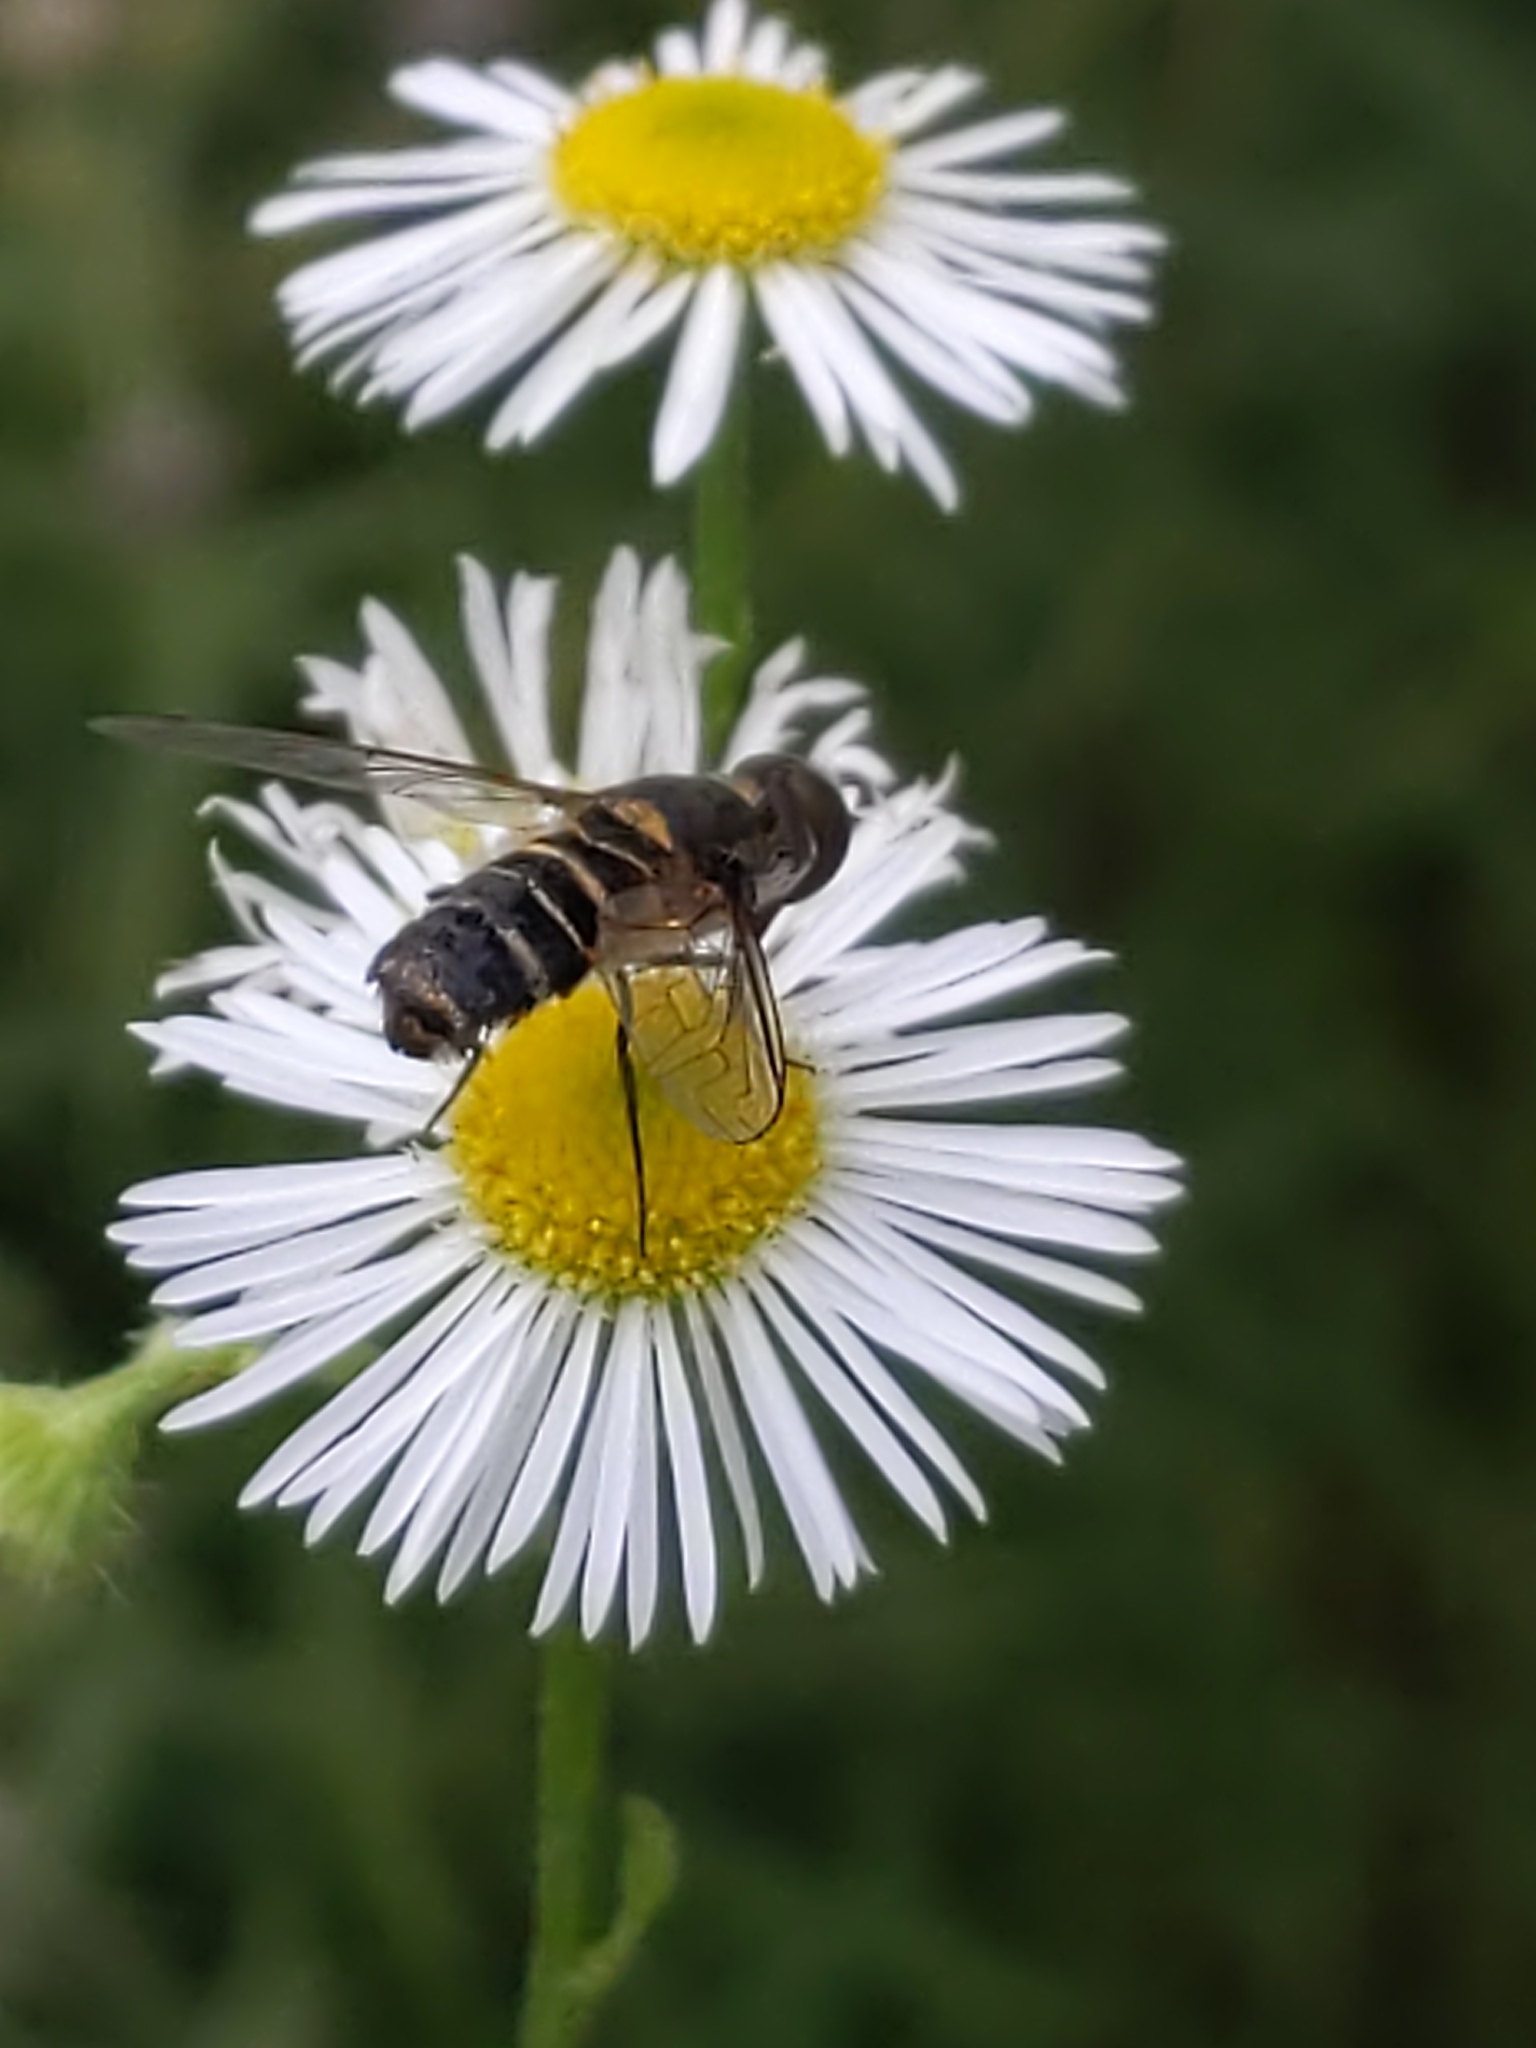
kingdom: Animalia
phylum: Arthropoda
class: Insecta
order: Diptera
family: Bombyliidae
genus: Villa
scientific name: Villa
